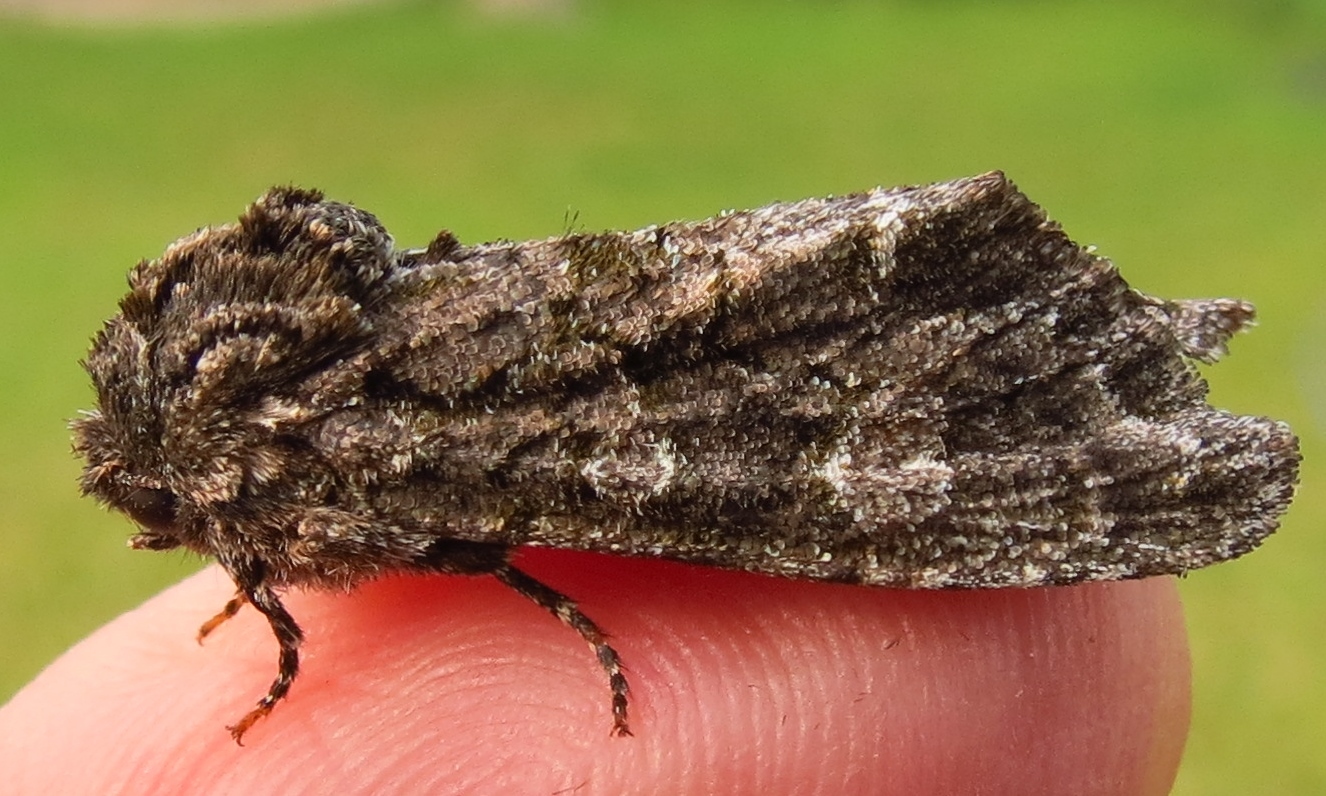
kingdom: Animalia
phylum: Arthropoda
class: Insecta
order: Lepidoptera
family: Noctuidae
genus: Psaphida
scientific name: Psaphida resumens
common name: Figure-eight sallow
